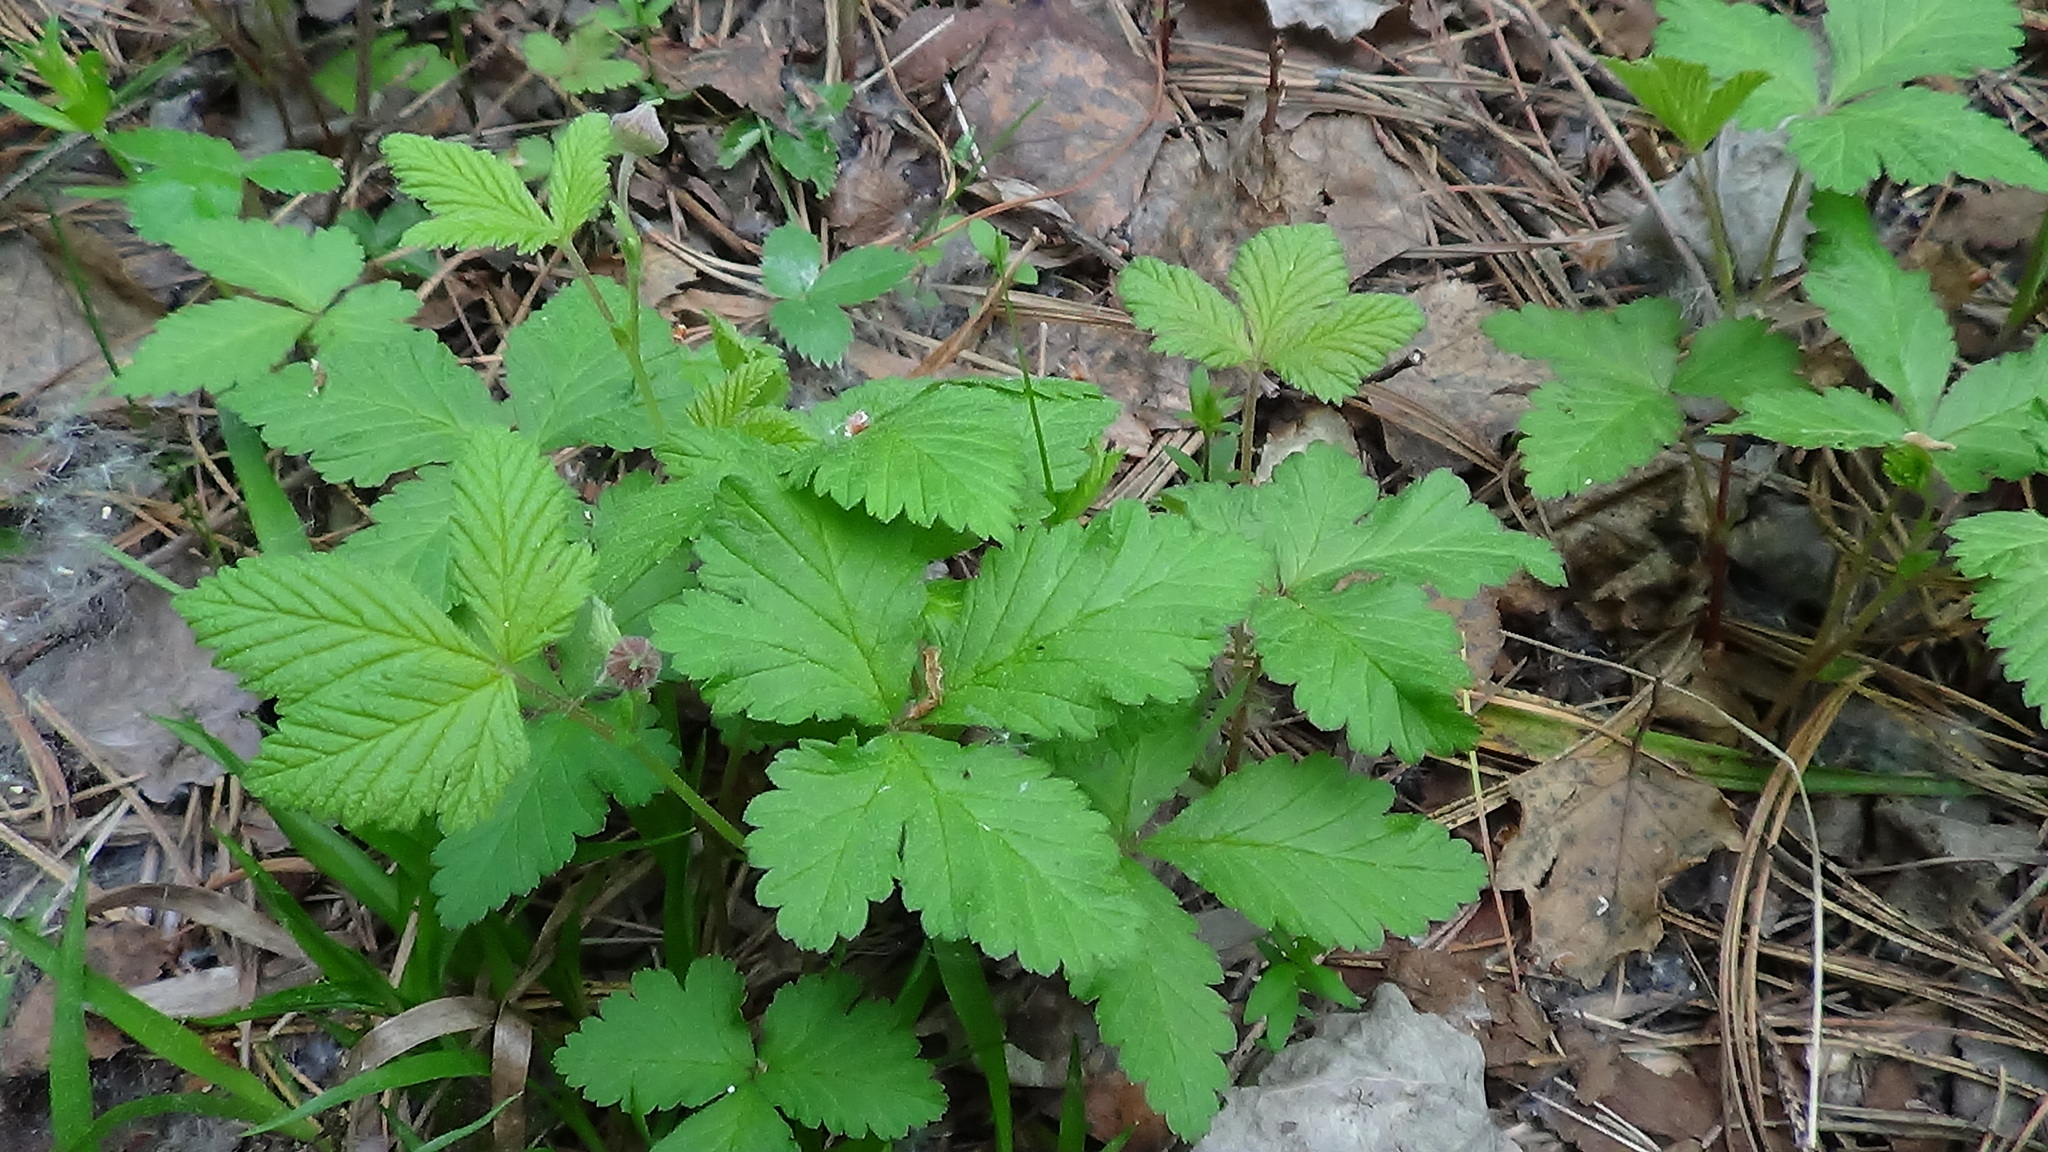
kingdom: Plantae
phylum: Tracheophyta
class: Magnoliopsida
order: Rosales
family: Rosaceae
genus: Rubus
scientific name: Rubus saxatilis
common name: Stone bramble
